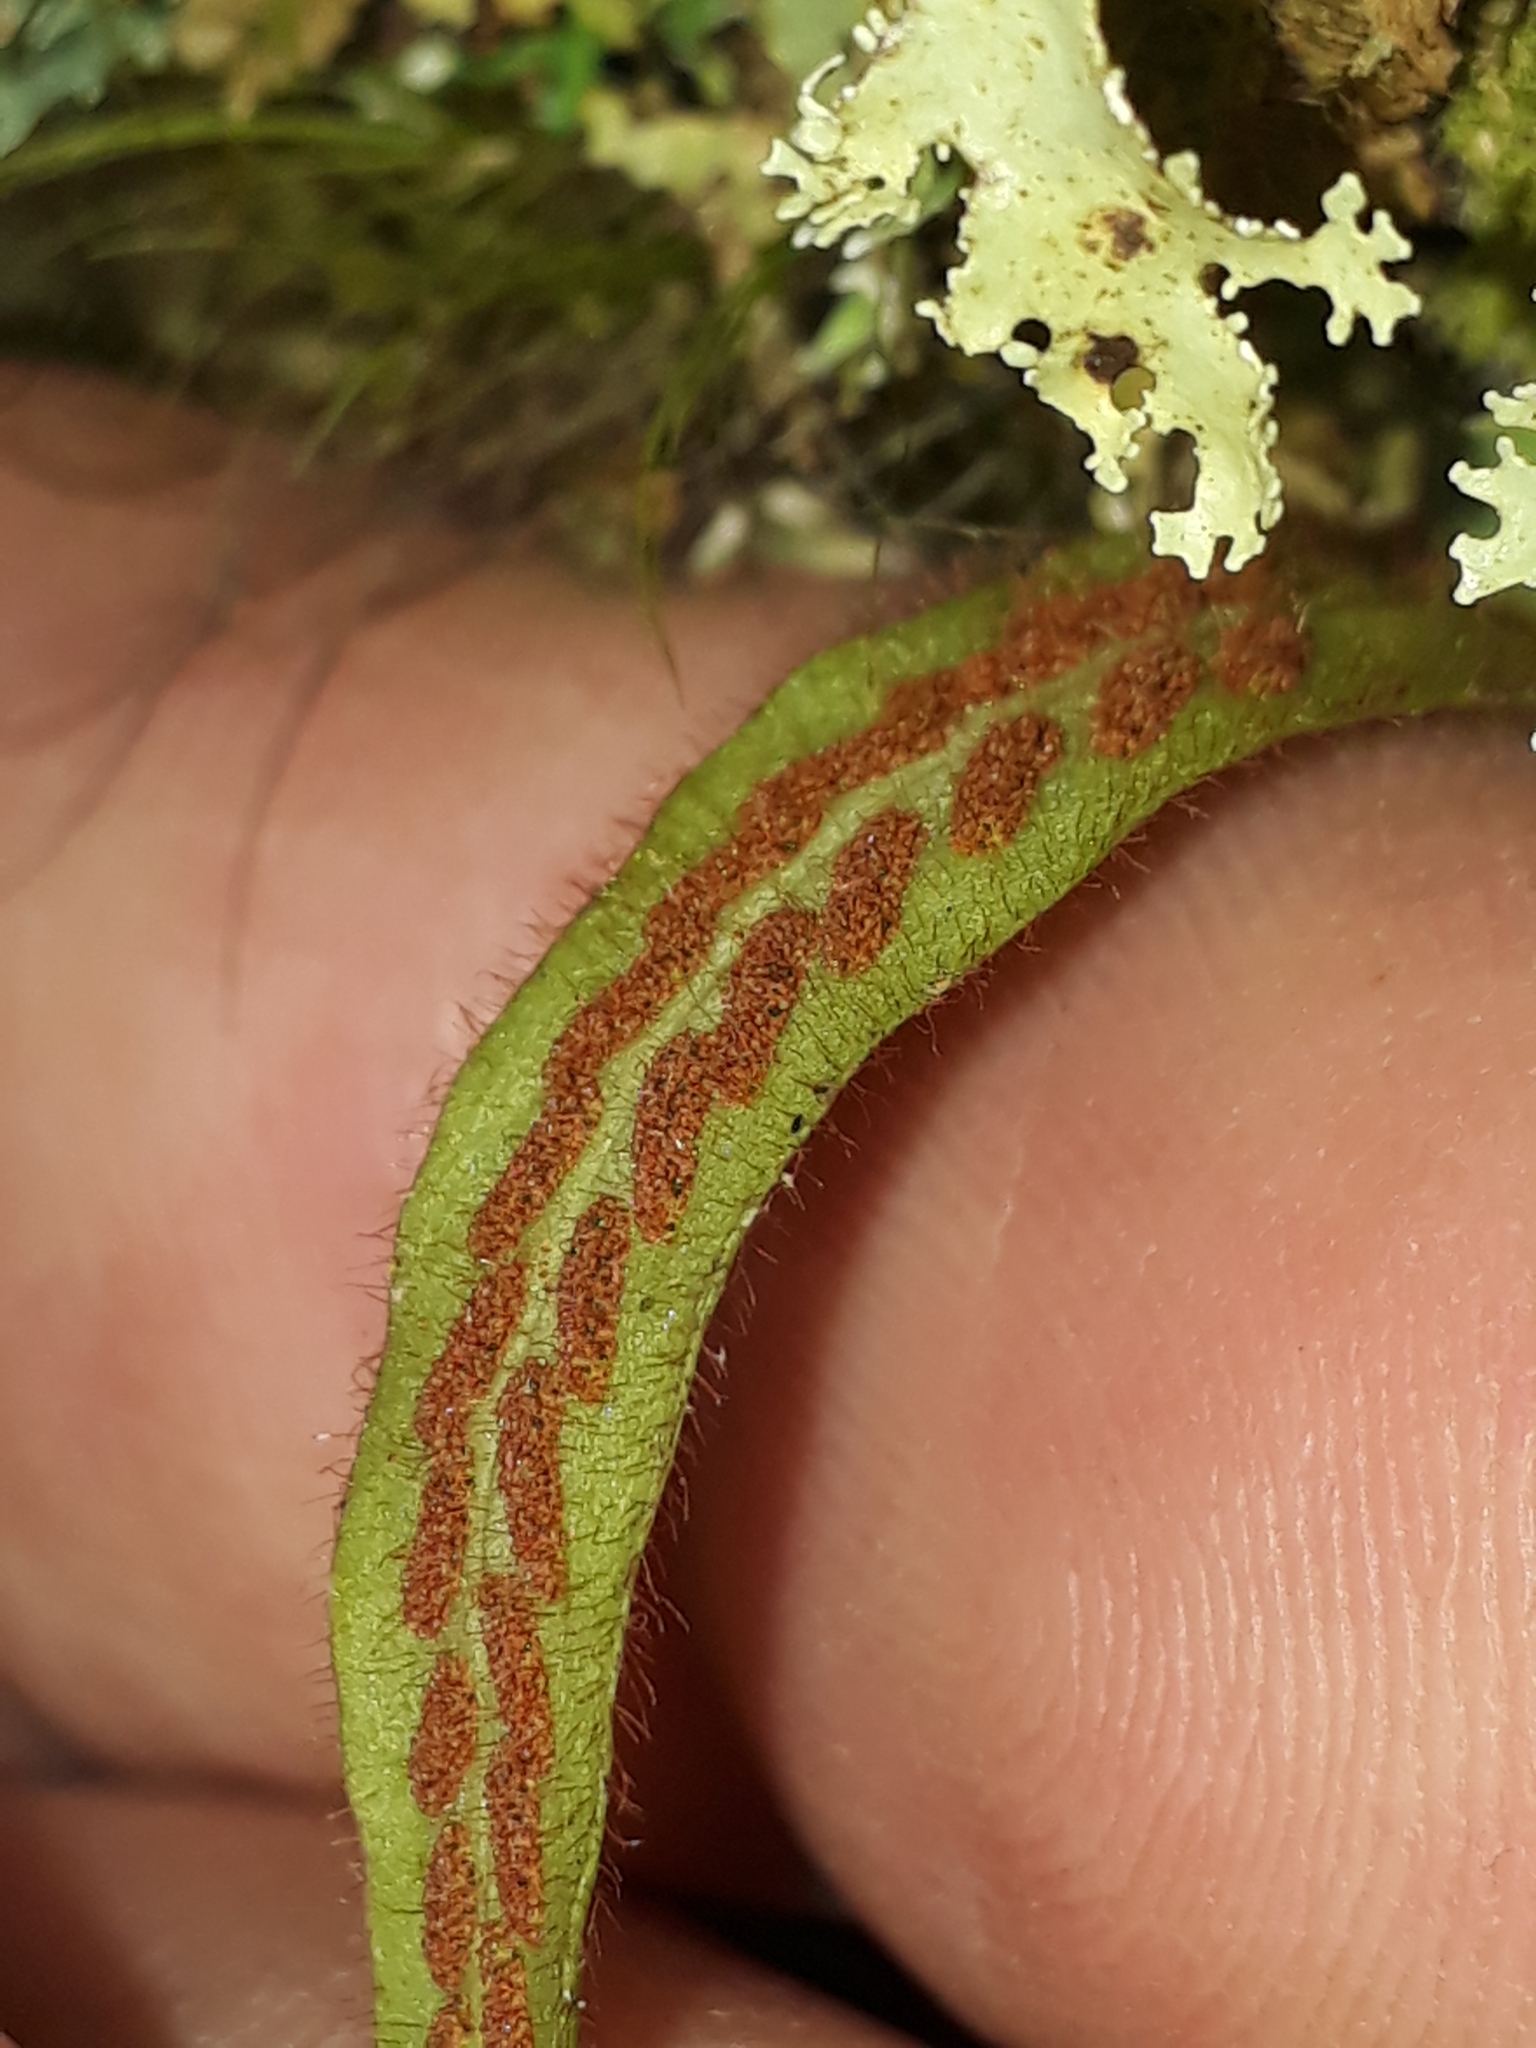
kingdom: Plantae
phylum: Tracheophyta
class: Polypodiopsida
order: Polypodiales
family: Polypodiaceae
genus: Notogrammitis
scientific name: Notogrammitis pseudociliata
